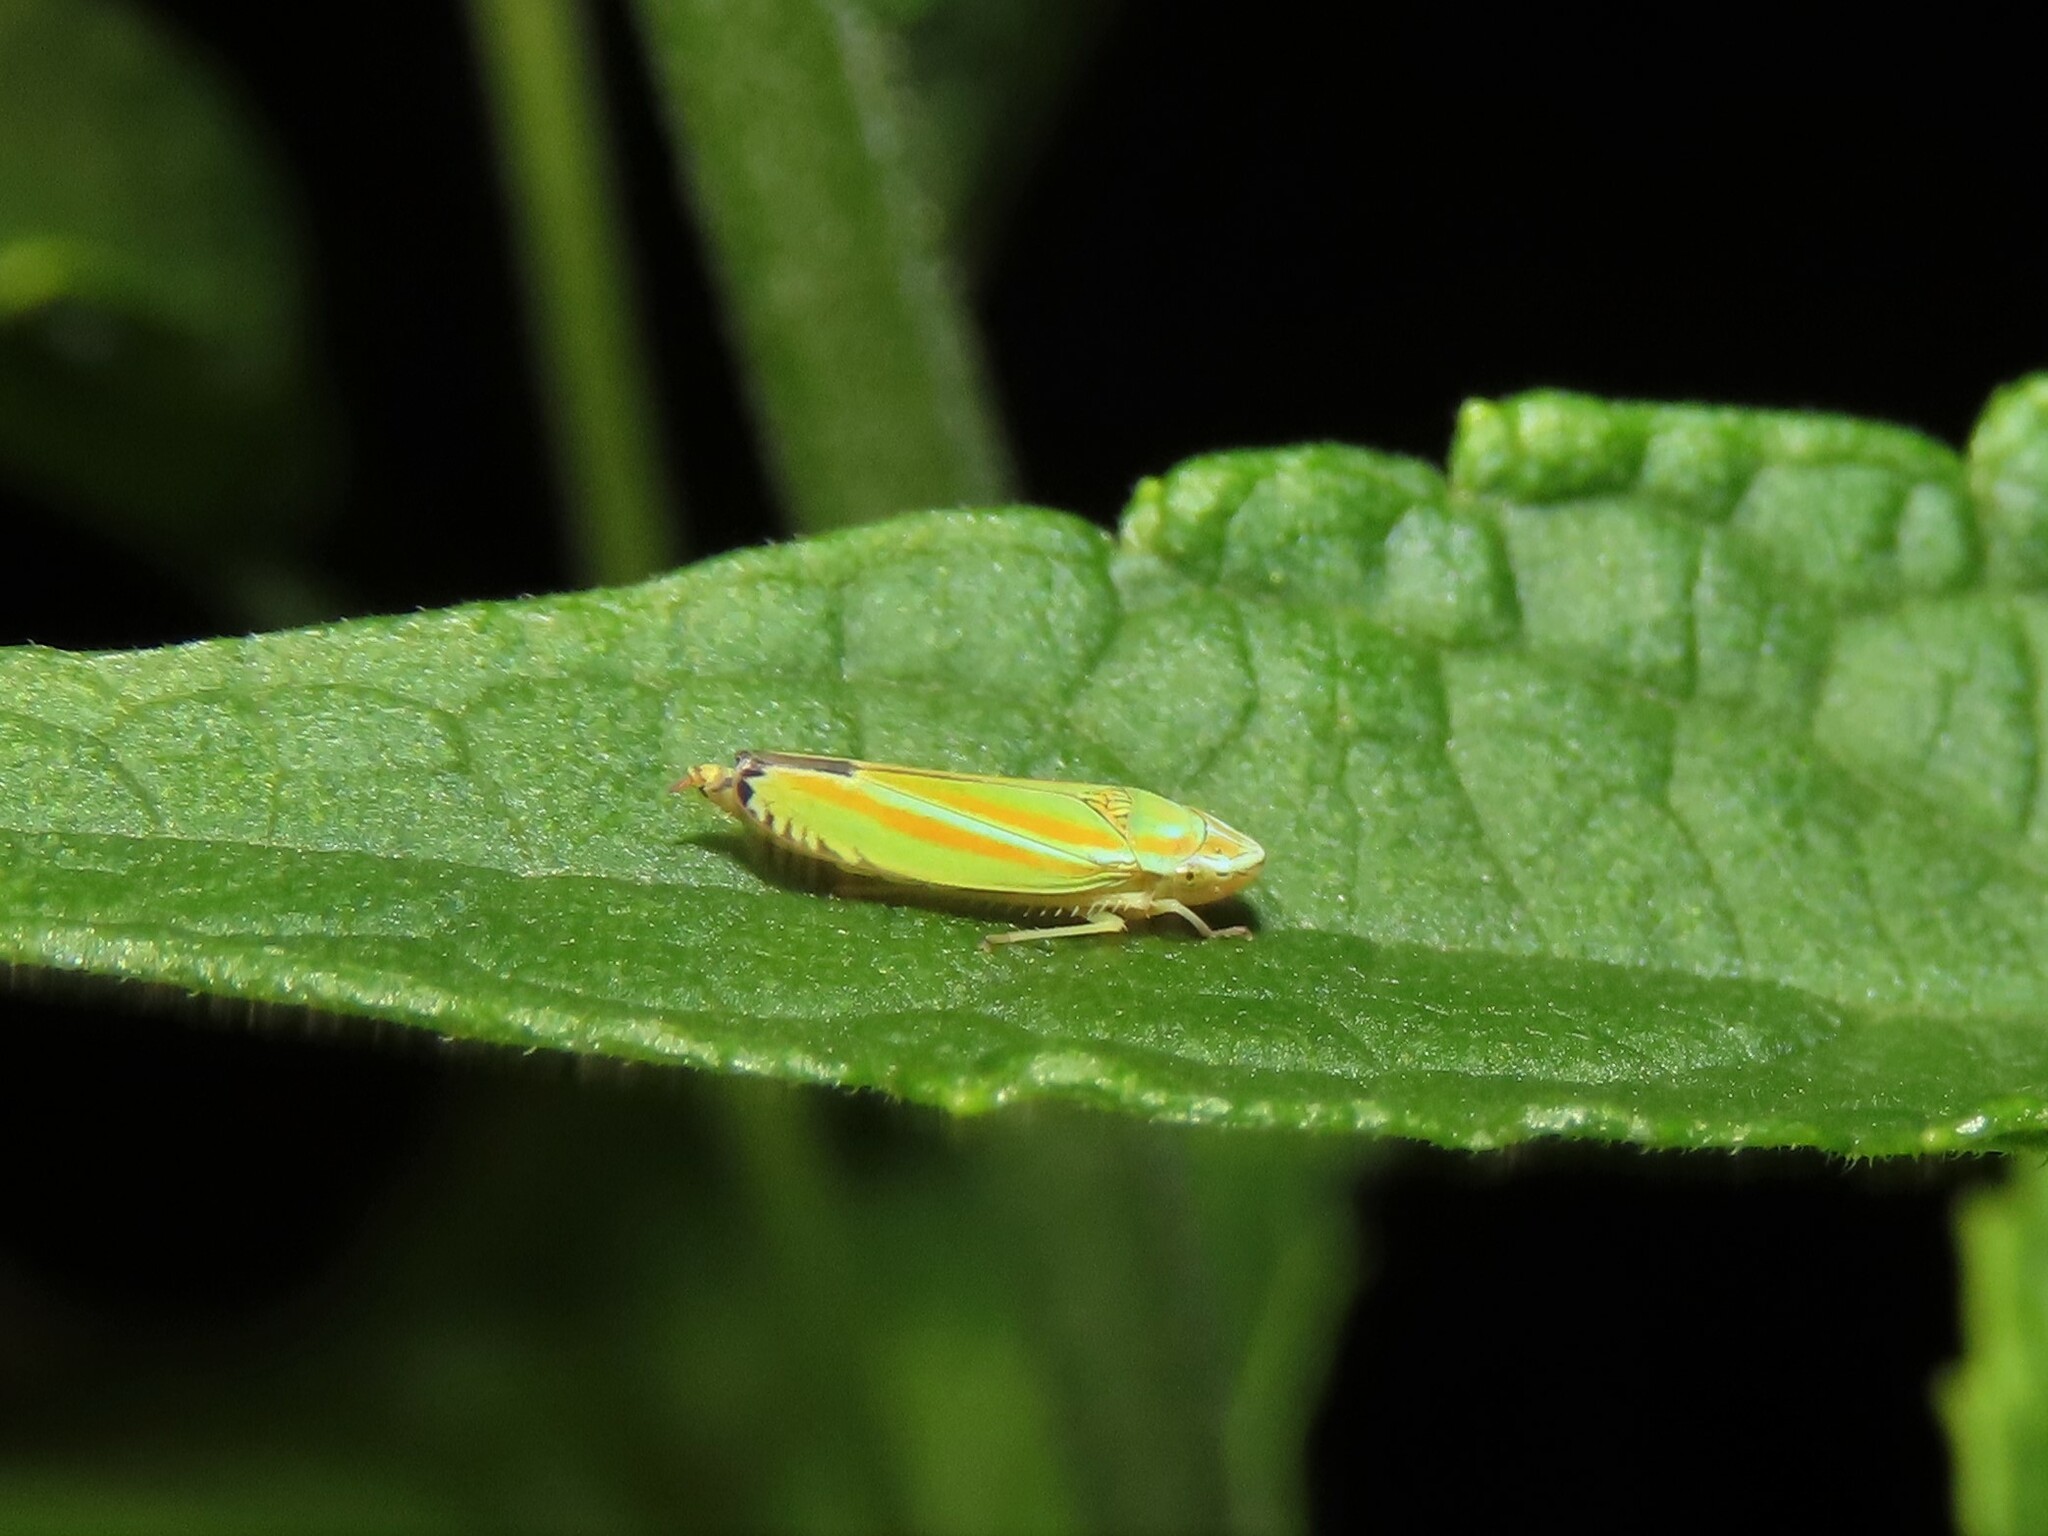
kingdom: Animalia
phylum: Arthropoda
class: Insecta
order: Hemiptera
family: Cicadellidae
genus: Graphocephala
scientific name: Graphocephala versuta
